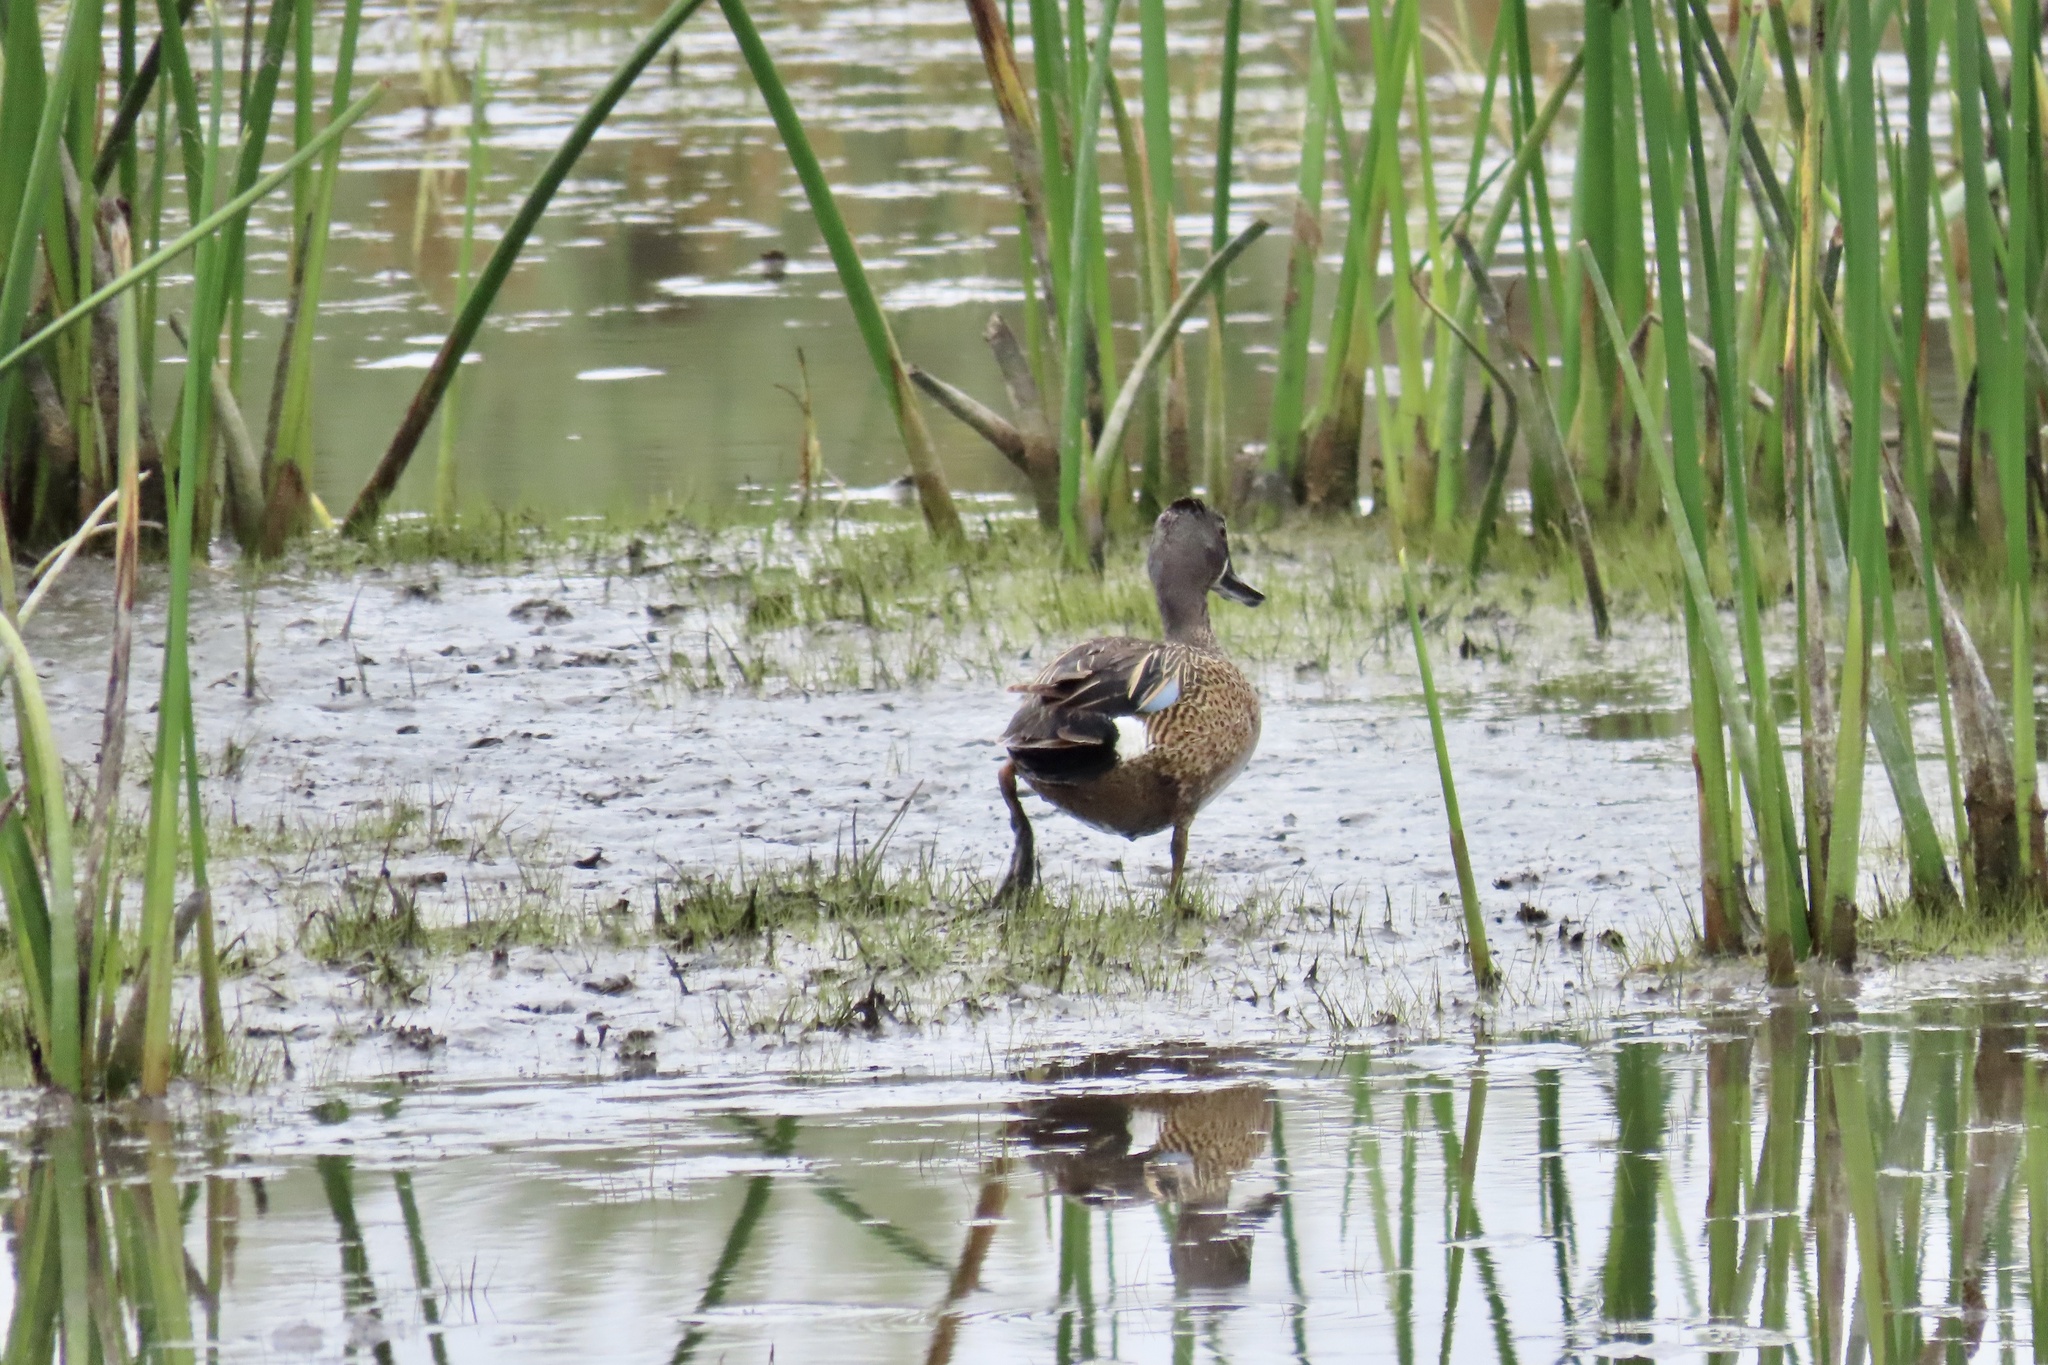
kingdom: Animalia
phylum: Chordata
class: Aves
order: Anseriformes
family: Anatidae
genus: Spatula
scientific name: Spatula discors
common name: Blue-winged teal
